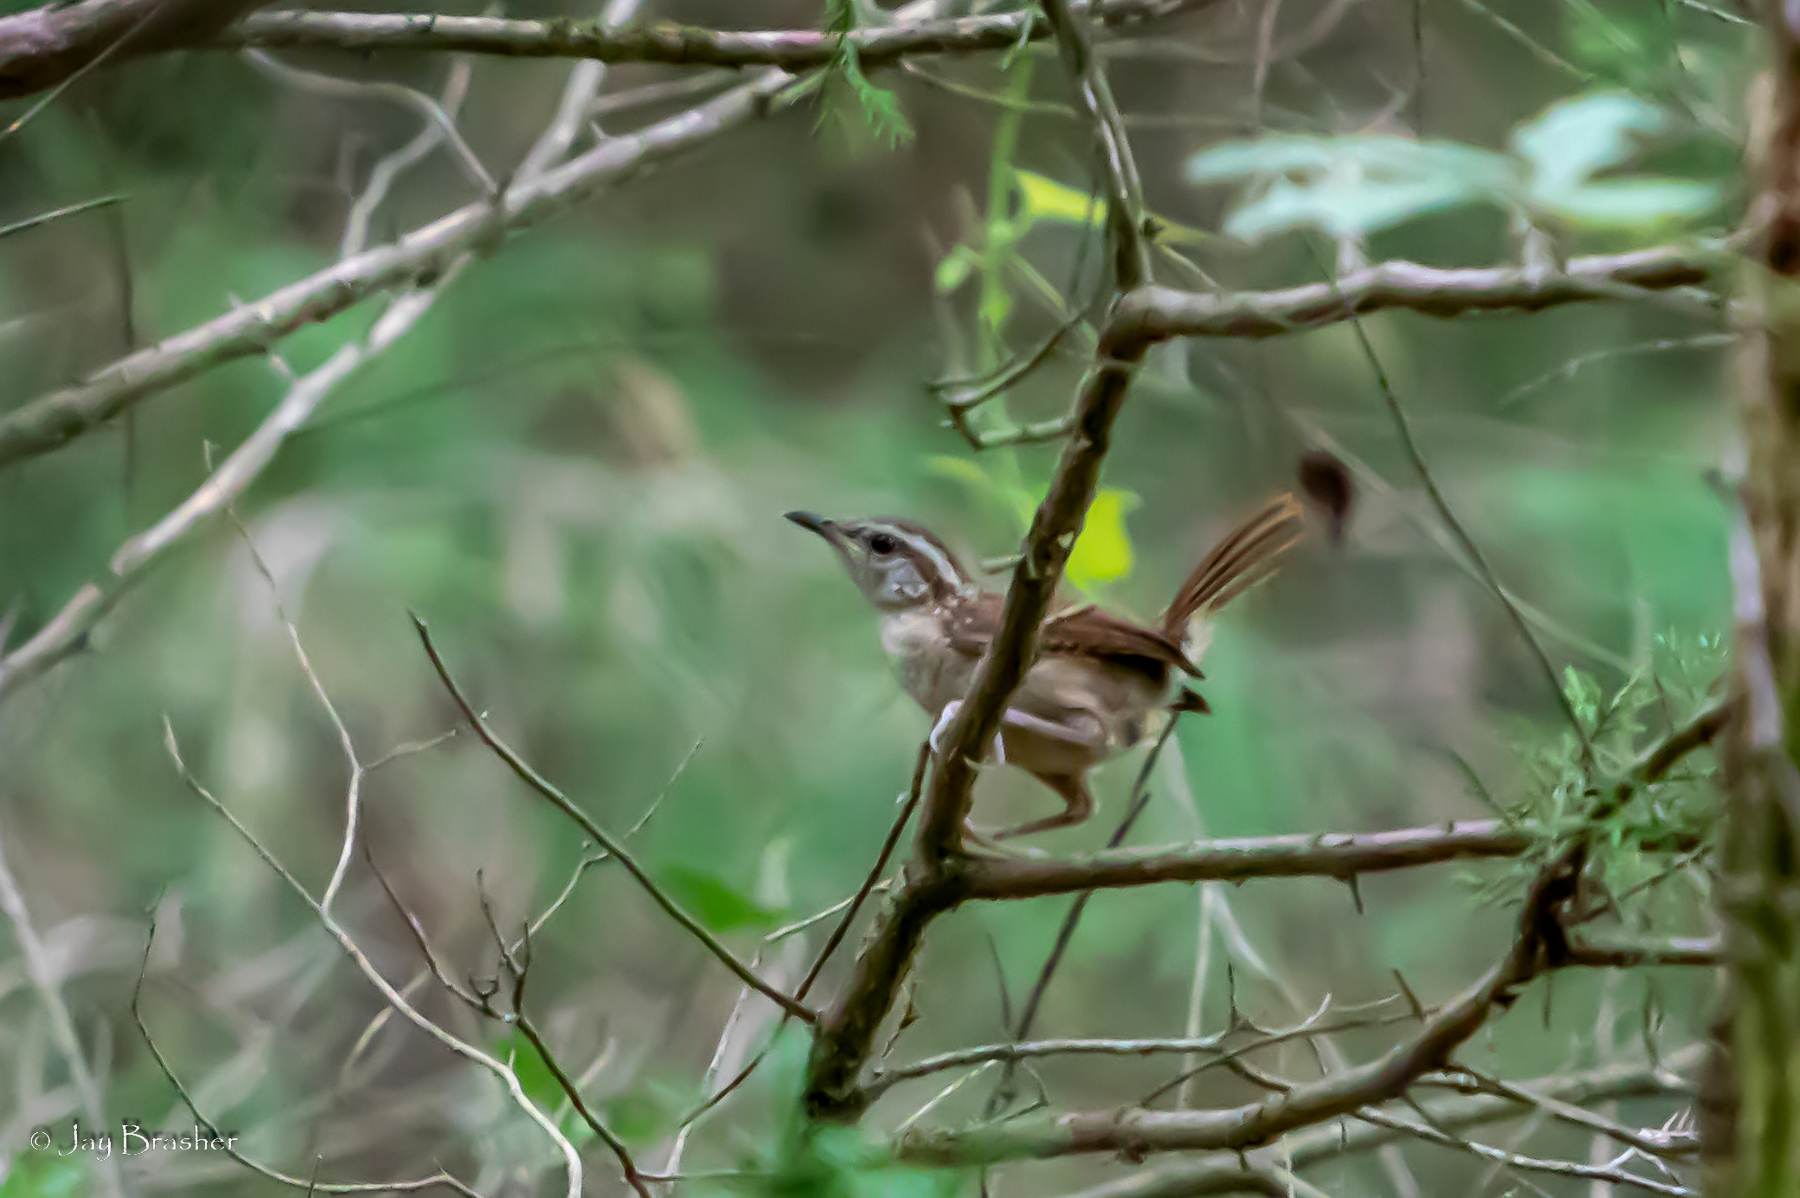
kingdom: Animalia
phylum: Chordata
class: Aves
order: Passeriformes
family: Troglodytidae
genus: Thryothorus
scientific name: Thryothorus ludovicianus
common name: Carolina wren
